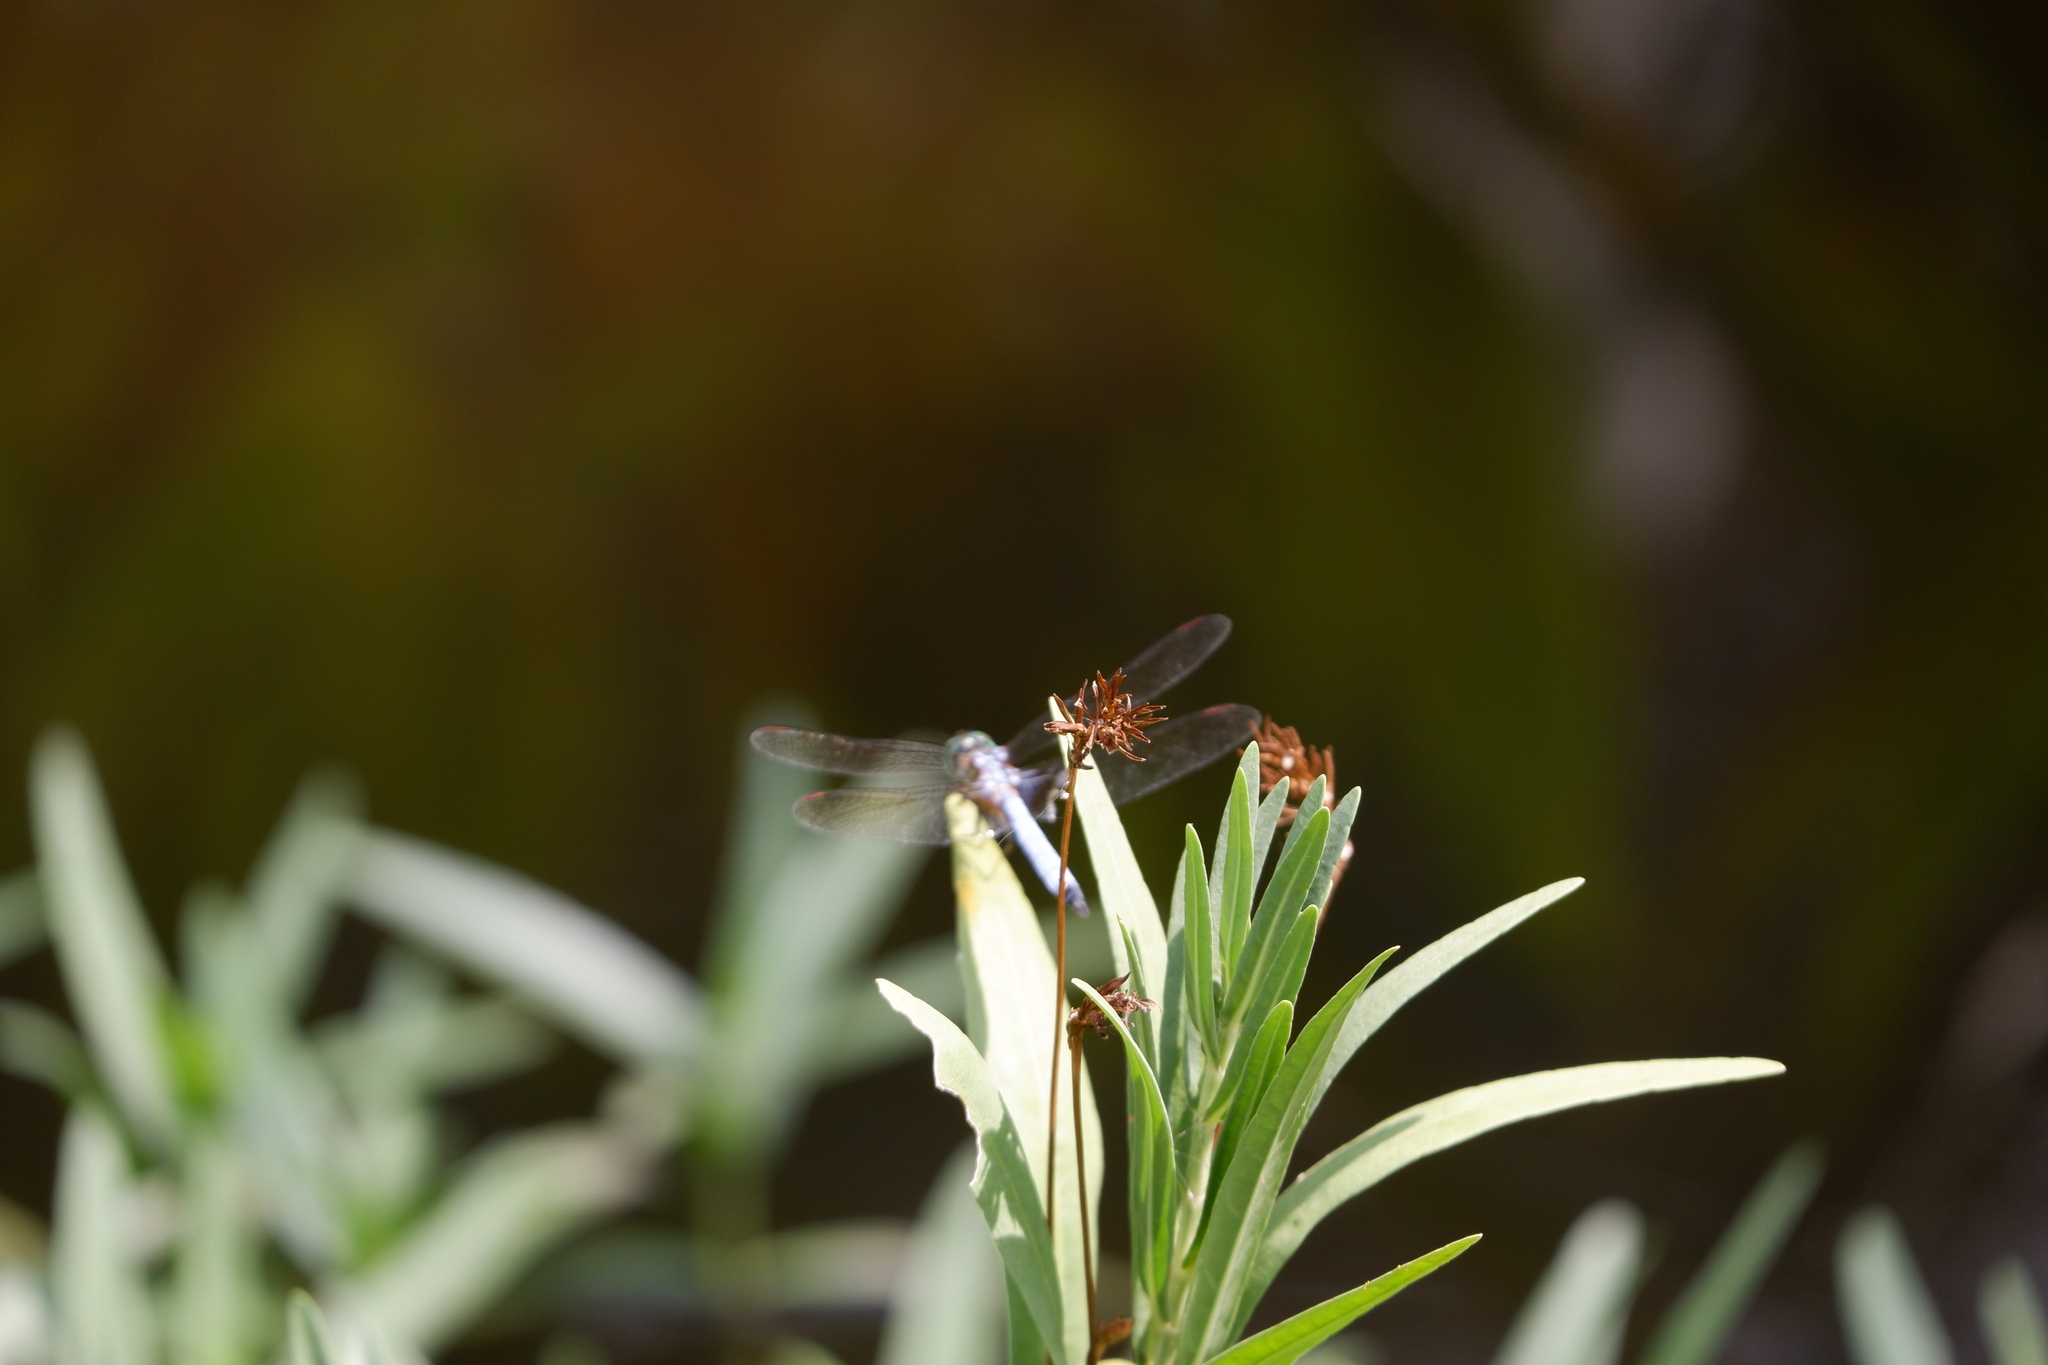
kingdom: Animalia
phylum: Arthropoda
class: Insecta
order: Odonata
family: Libellulidae
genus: Pachydiplax
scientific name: Pachydiplax longipennis
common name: Blue dasher
